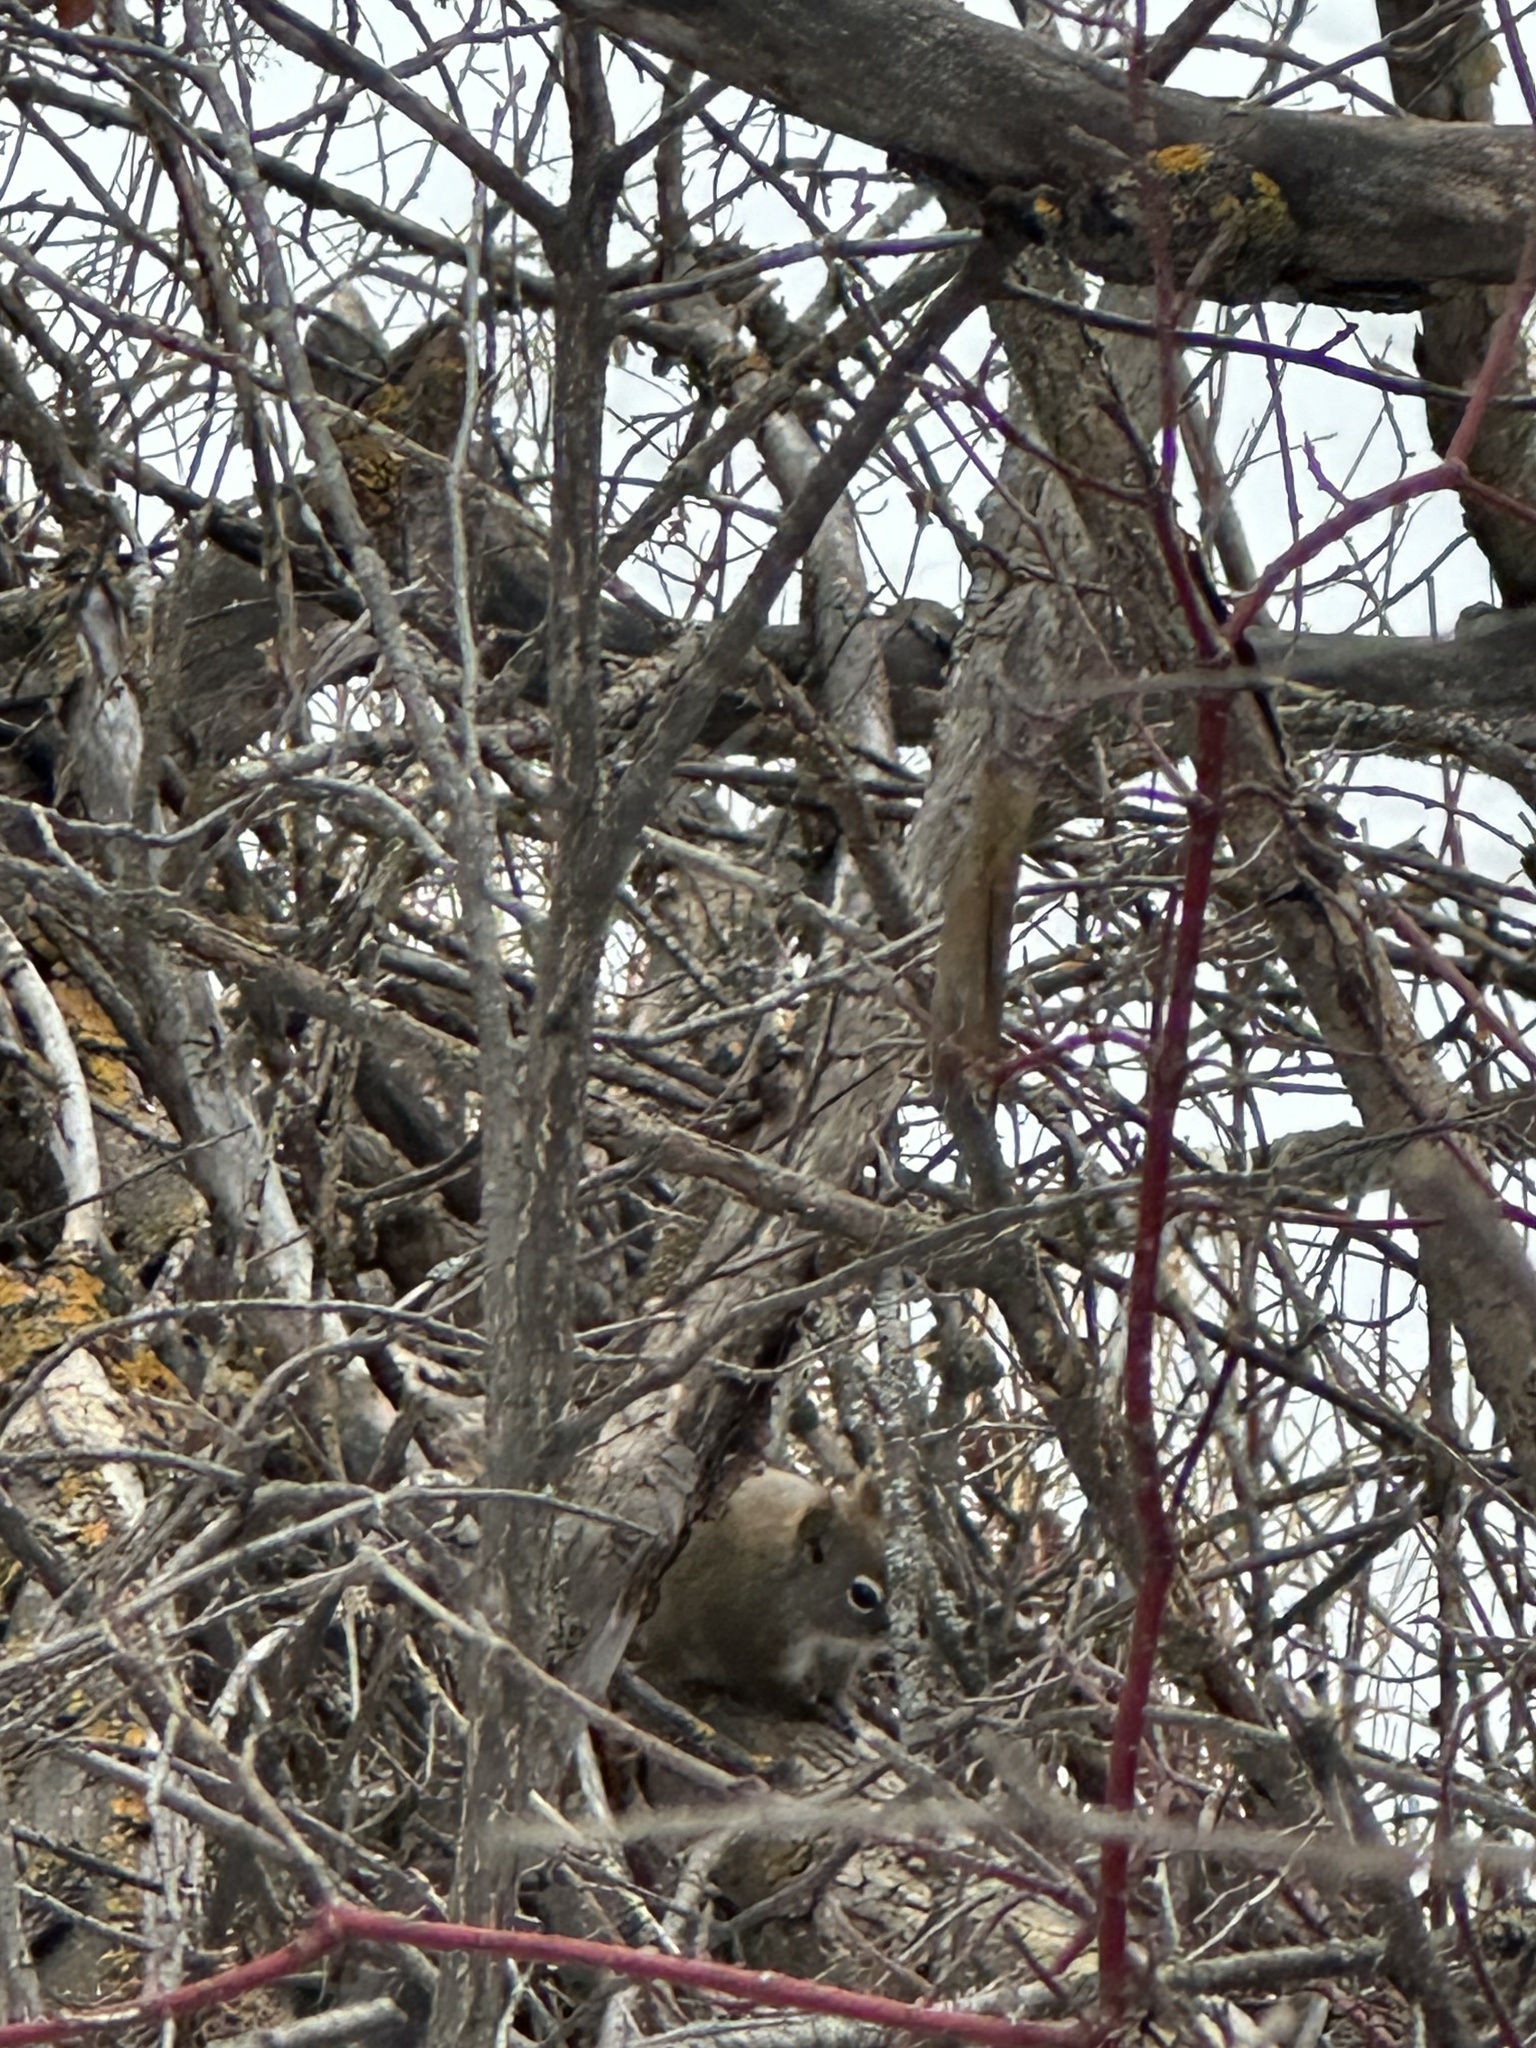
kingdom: Animalia
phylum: Chordata
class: Mammalia
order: Rodentia
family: Sciuridae
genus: Tamiasciurus
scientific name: Tamiasciurus hudsonicus
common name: Red squirrel
